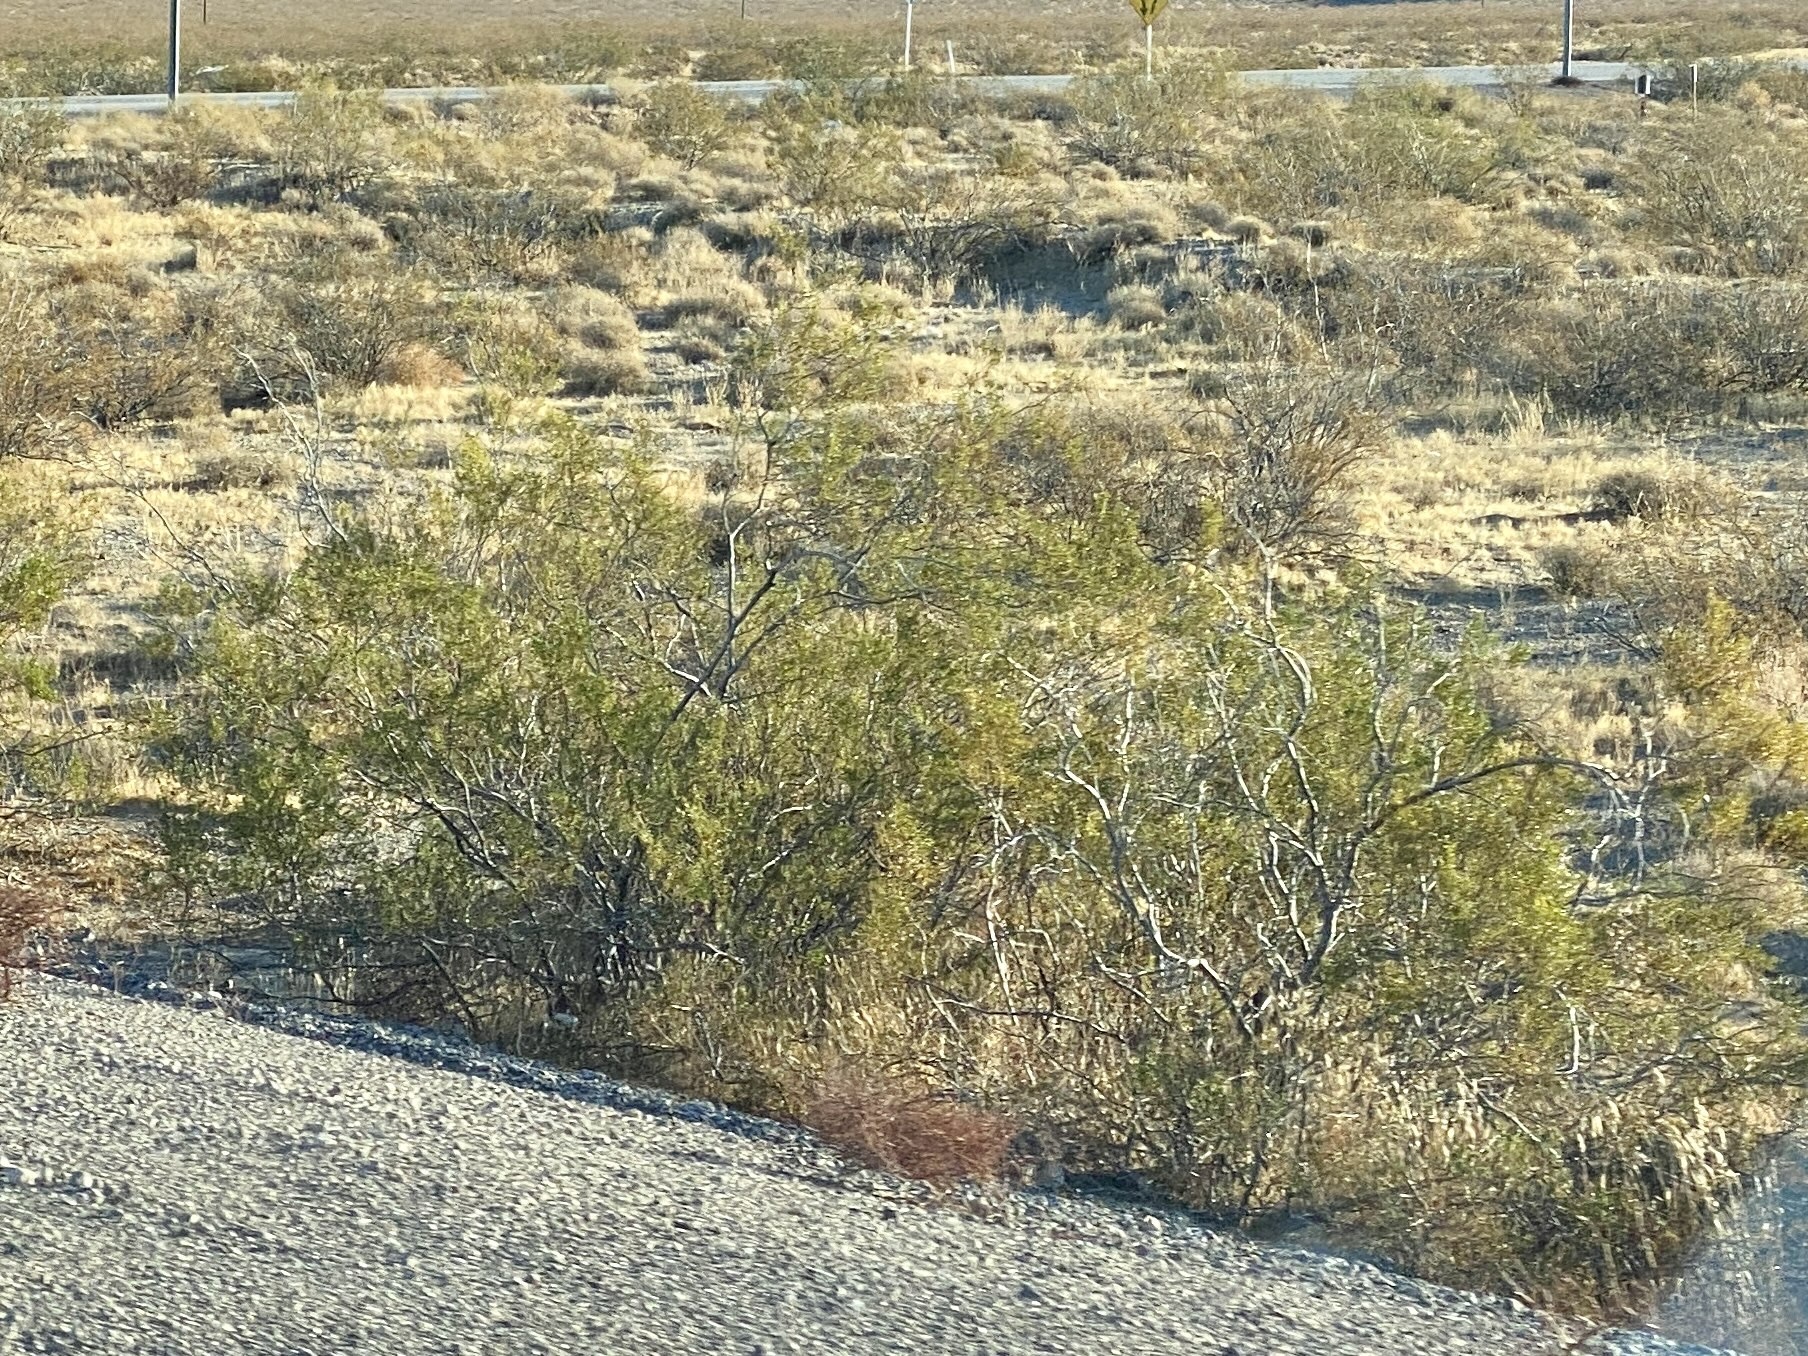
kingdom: Plantae
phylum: Tracheophyta
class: Magnoliopsida
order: Zygophyllales
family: Zygophyllaceae
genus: Larrea
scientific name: Larrea tridentata
